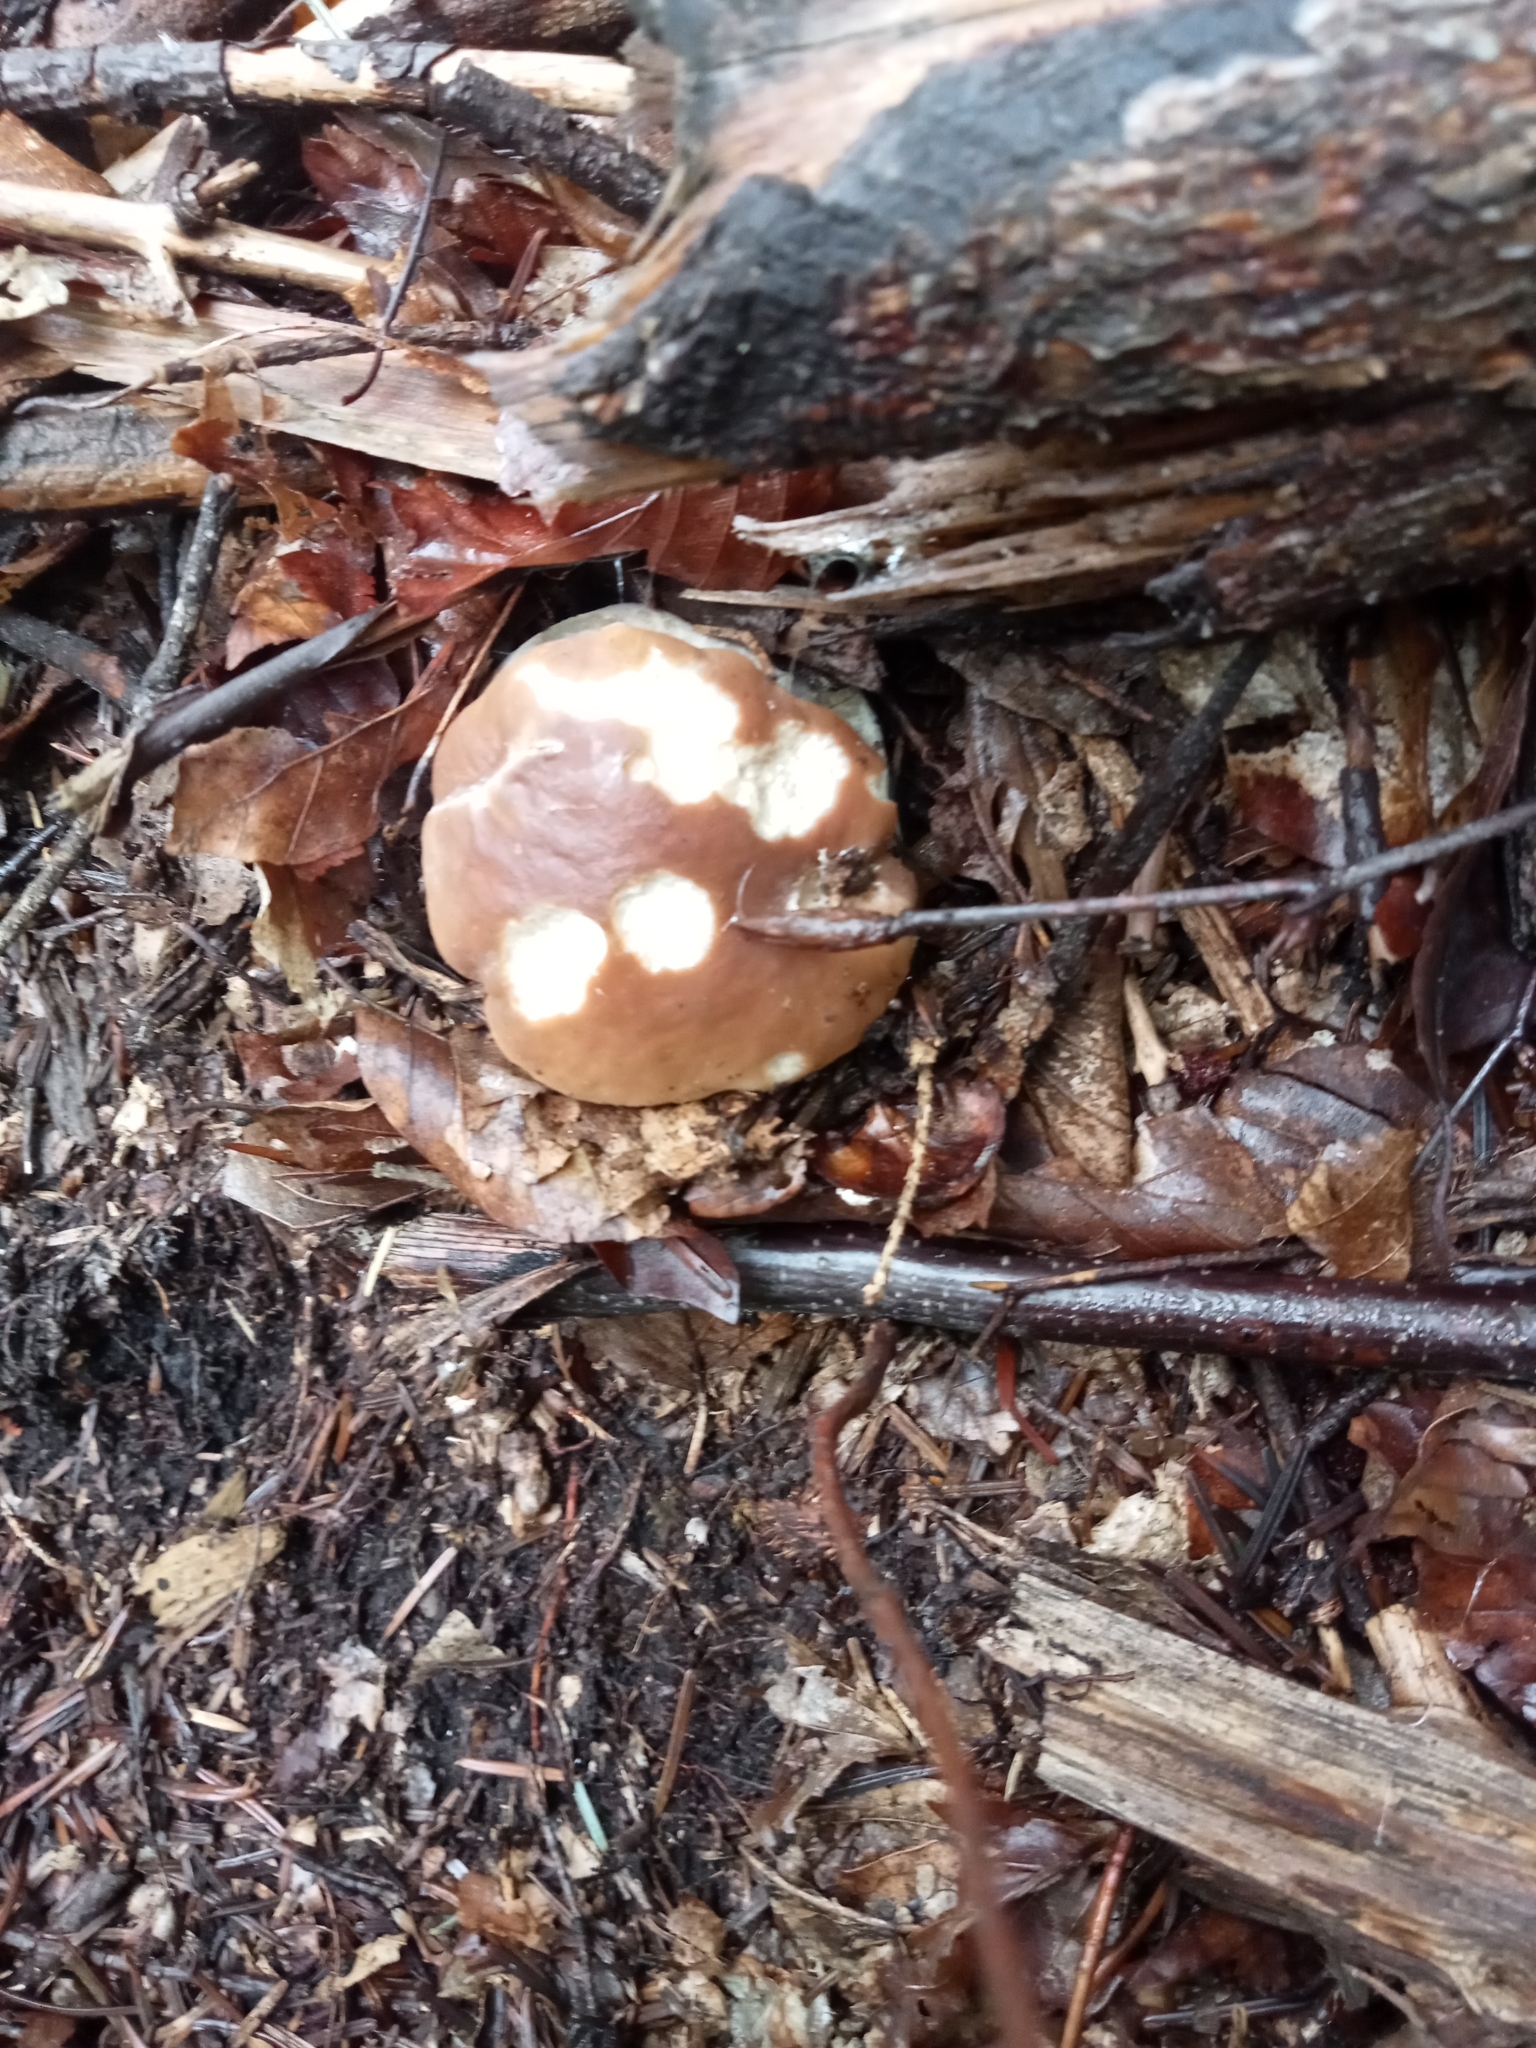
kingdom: Fungi
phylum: Basidiomycota
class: Agaricomycetes
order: Boletales
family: Boletaceae
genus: Boletus
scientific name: Boletus edulis
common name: Cep
